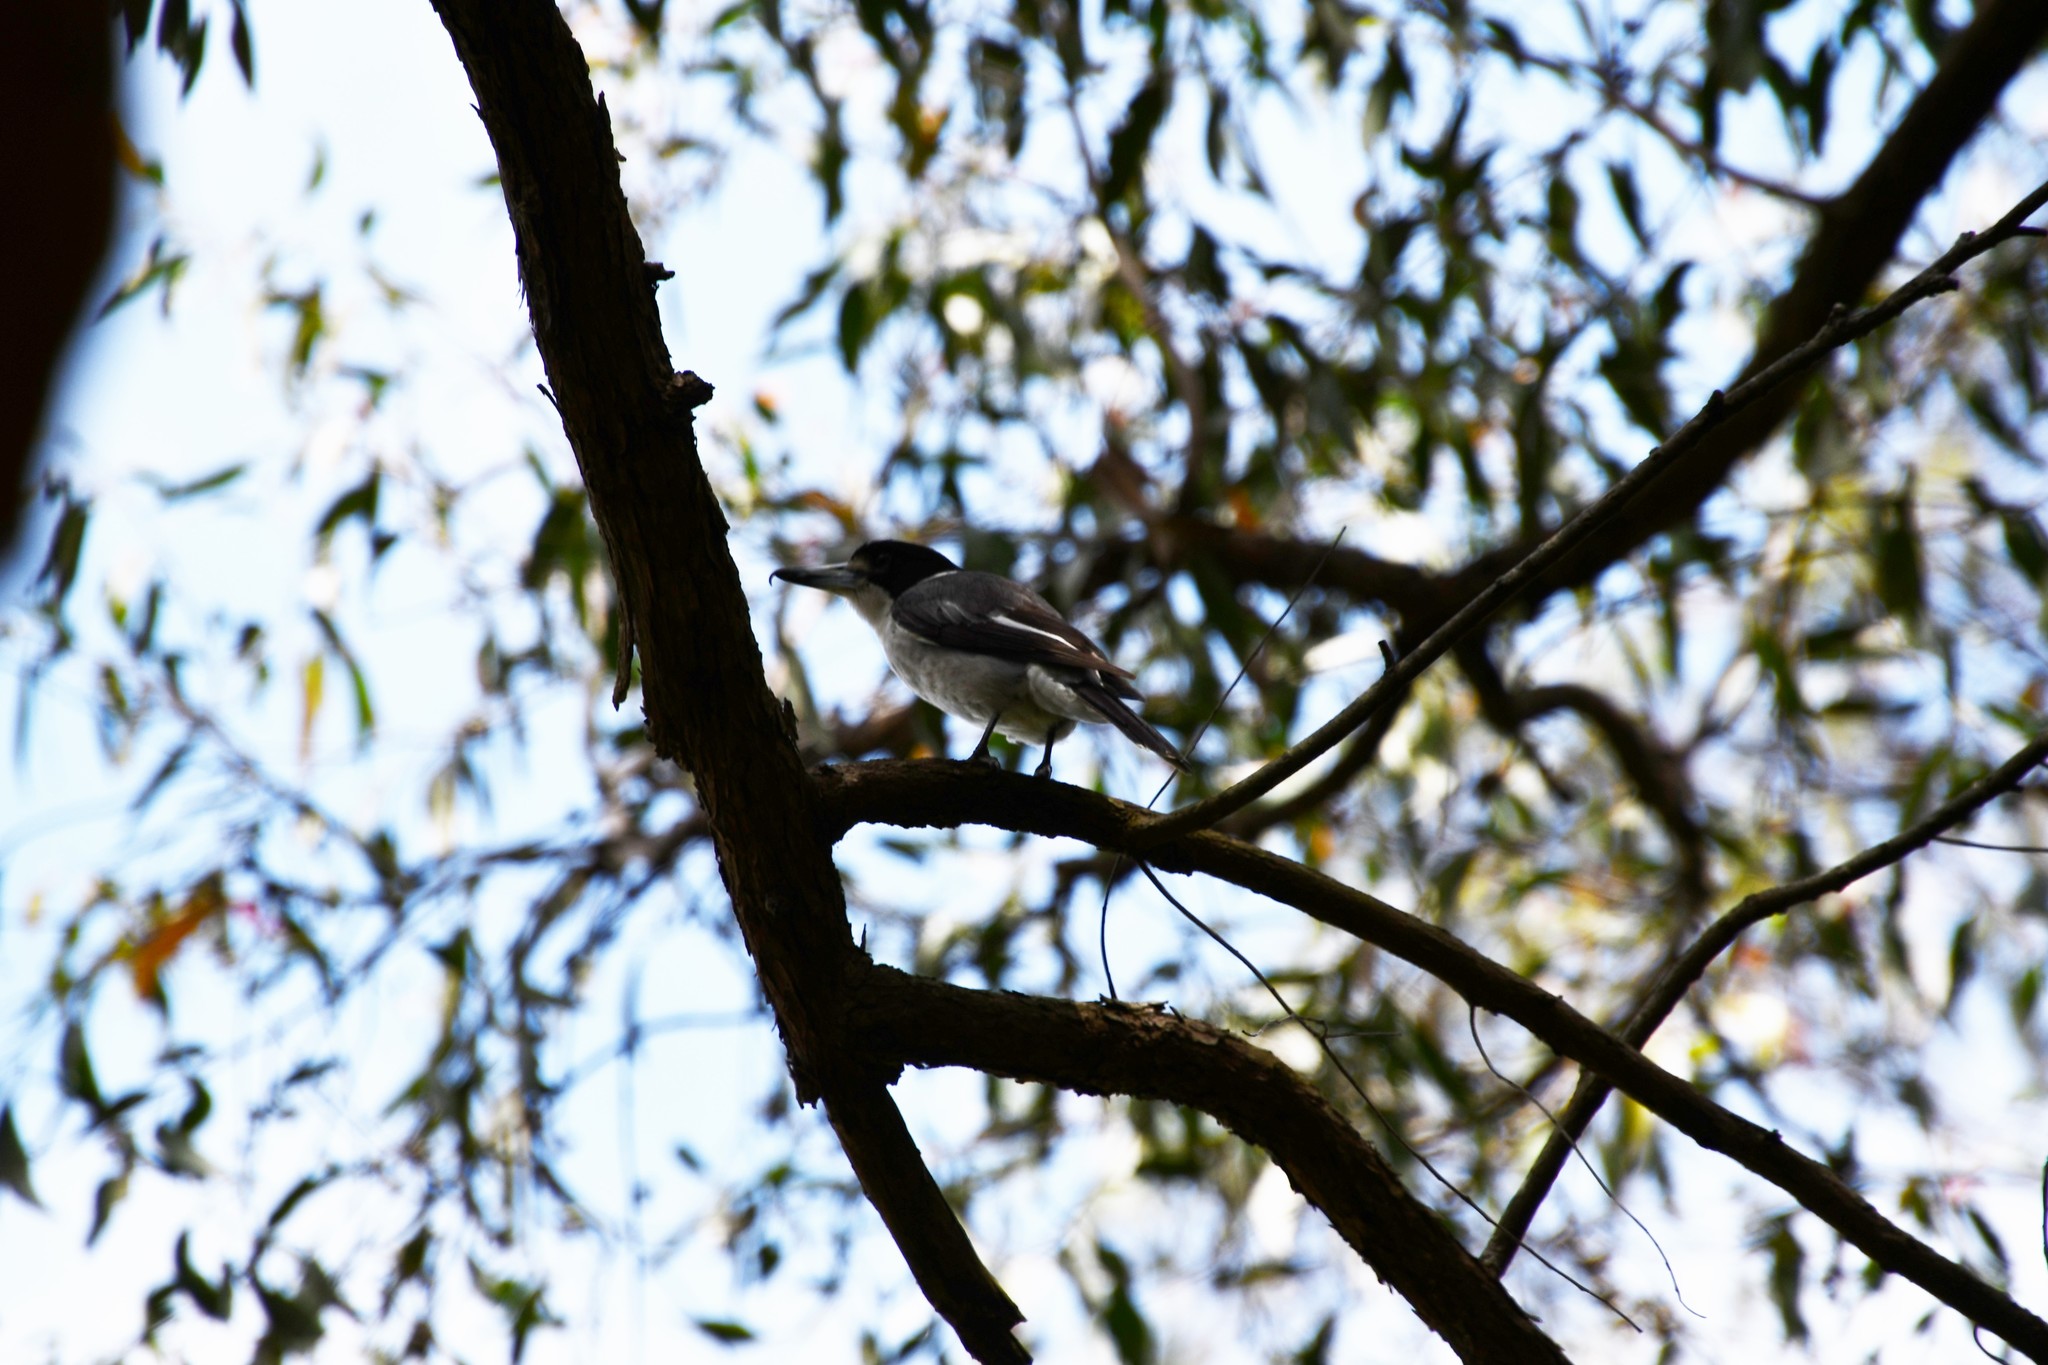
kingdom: Animalia
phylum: Chordata
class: Aves
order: Passeriformes
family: Cracticidae
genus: Cracticus
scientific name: Cracticus torquatus
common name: Grey butcherbird
